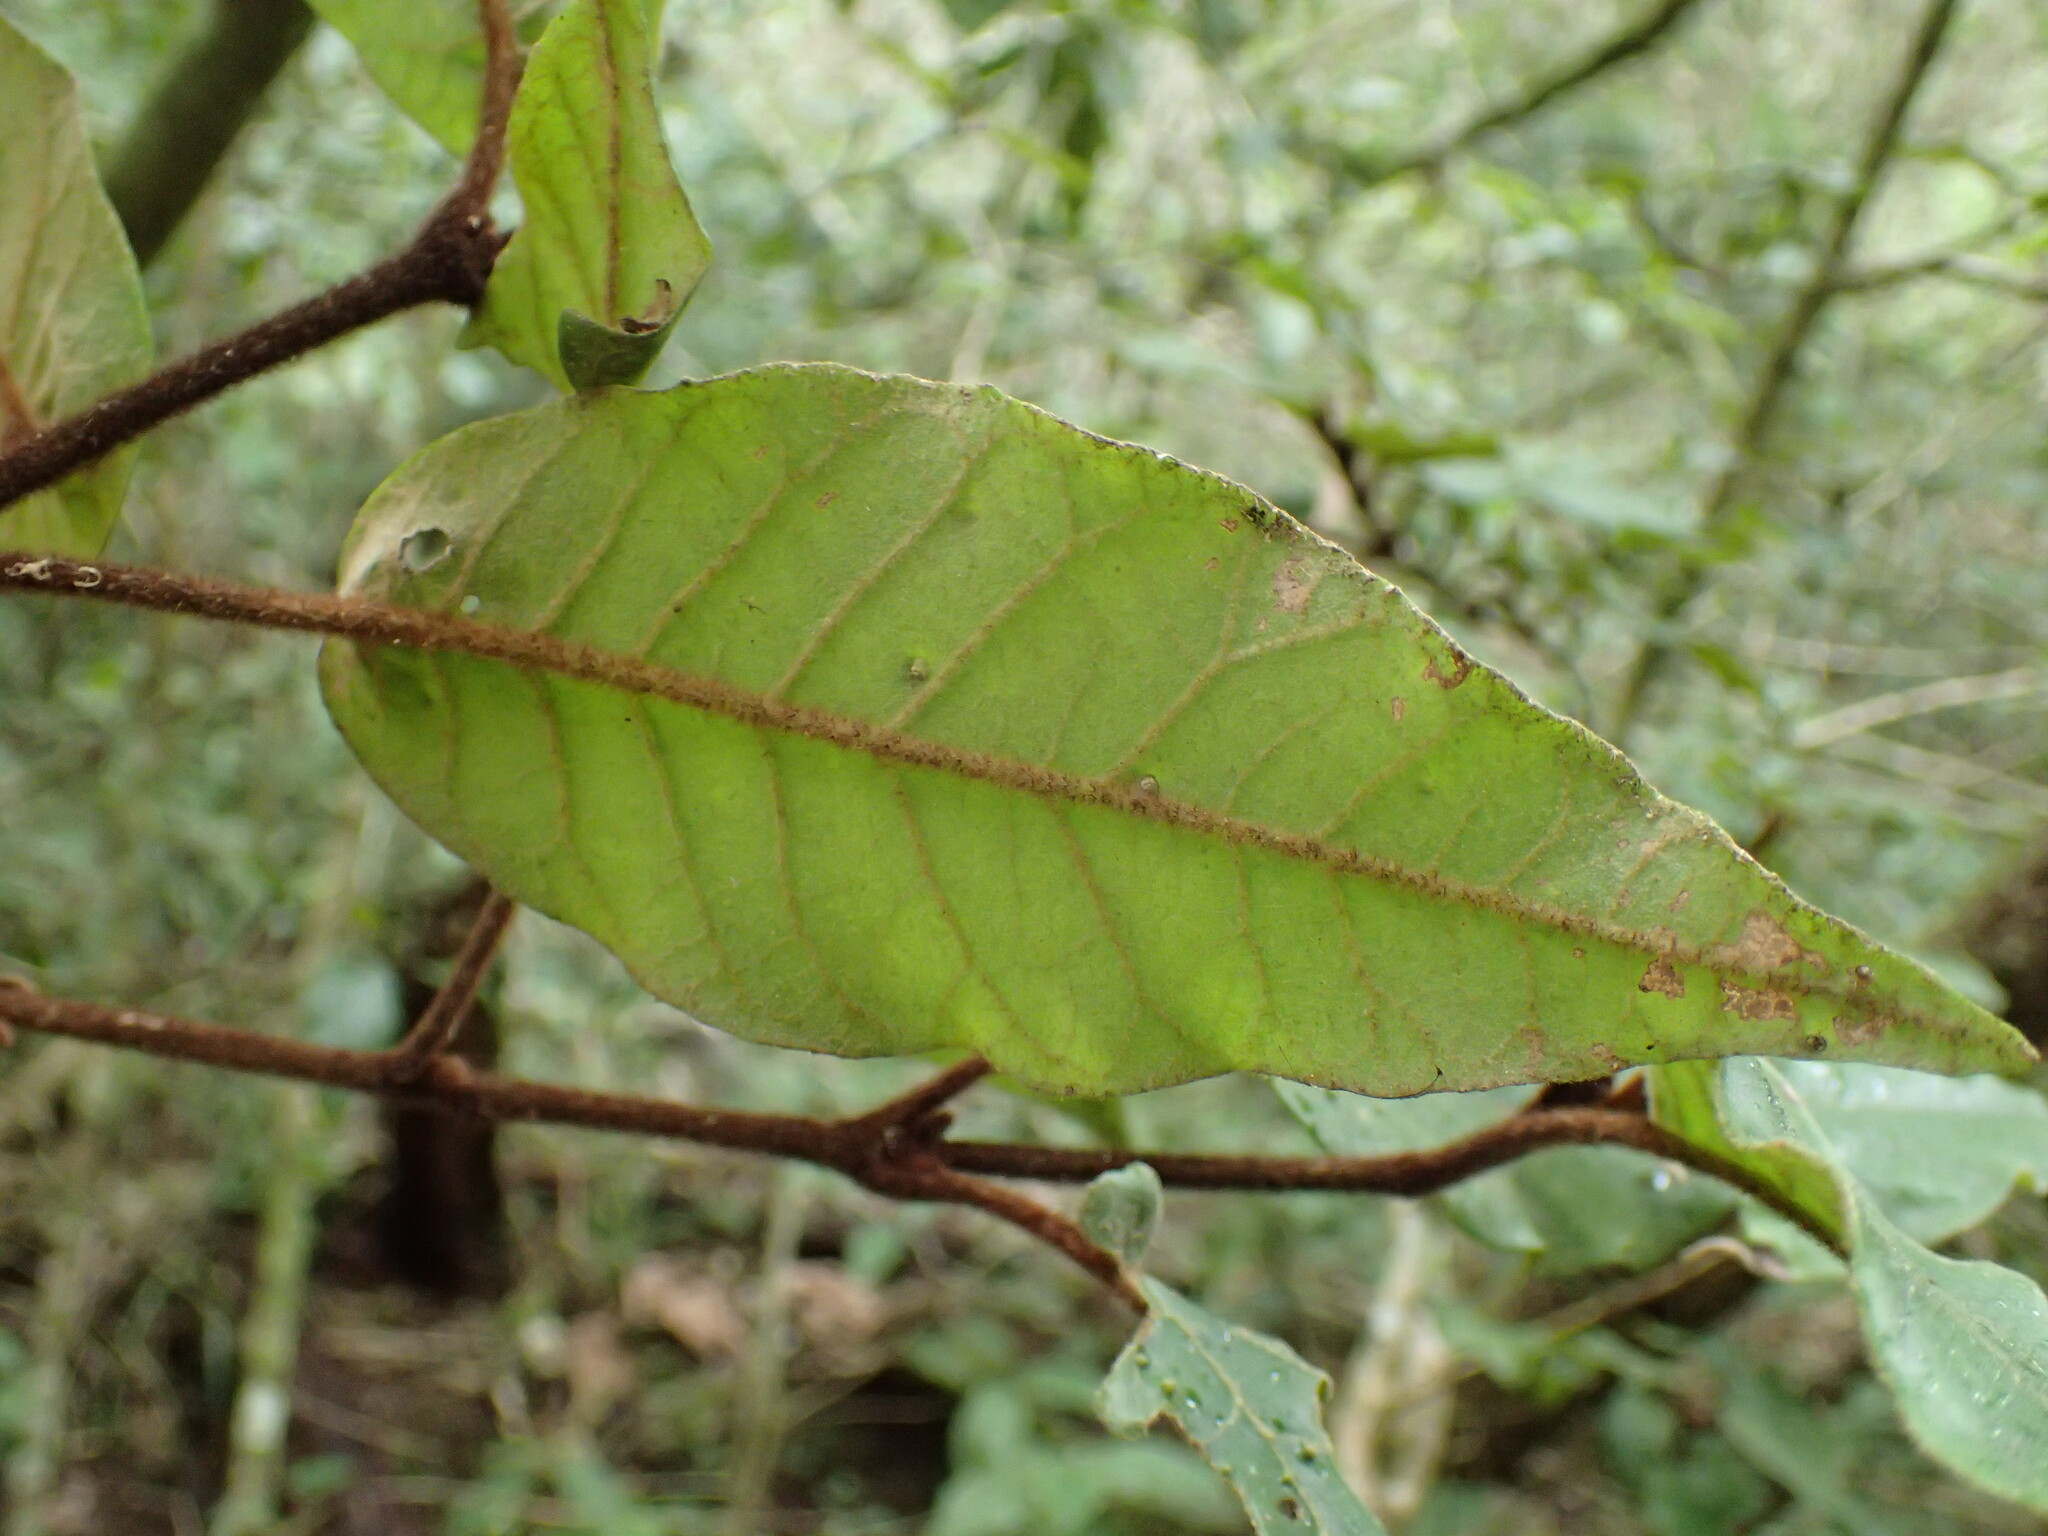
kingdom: Plantae
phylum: Tracheophyta
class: Magnoliopsida
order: Saxifragales
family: Hamamelidaceae
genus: Trichocladus
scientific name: Trichocladus crinitus
